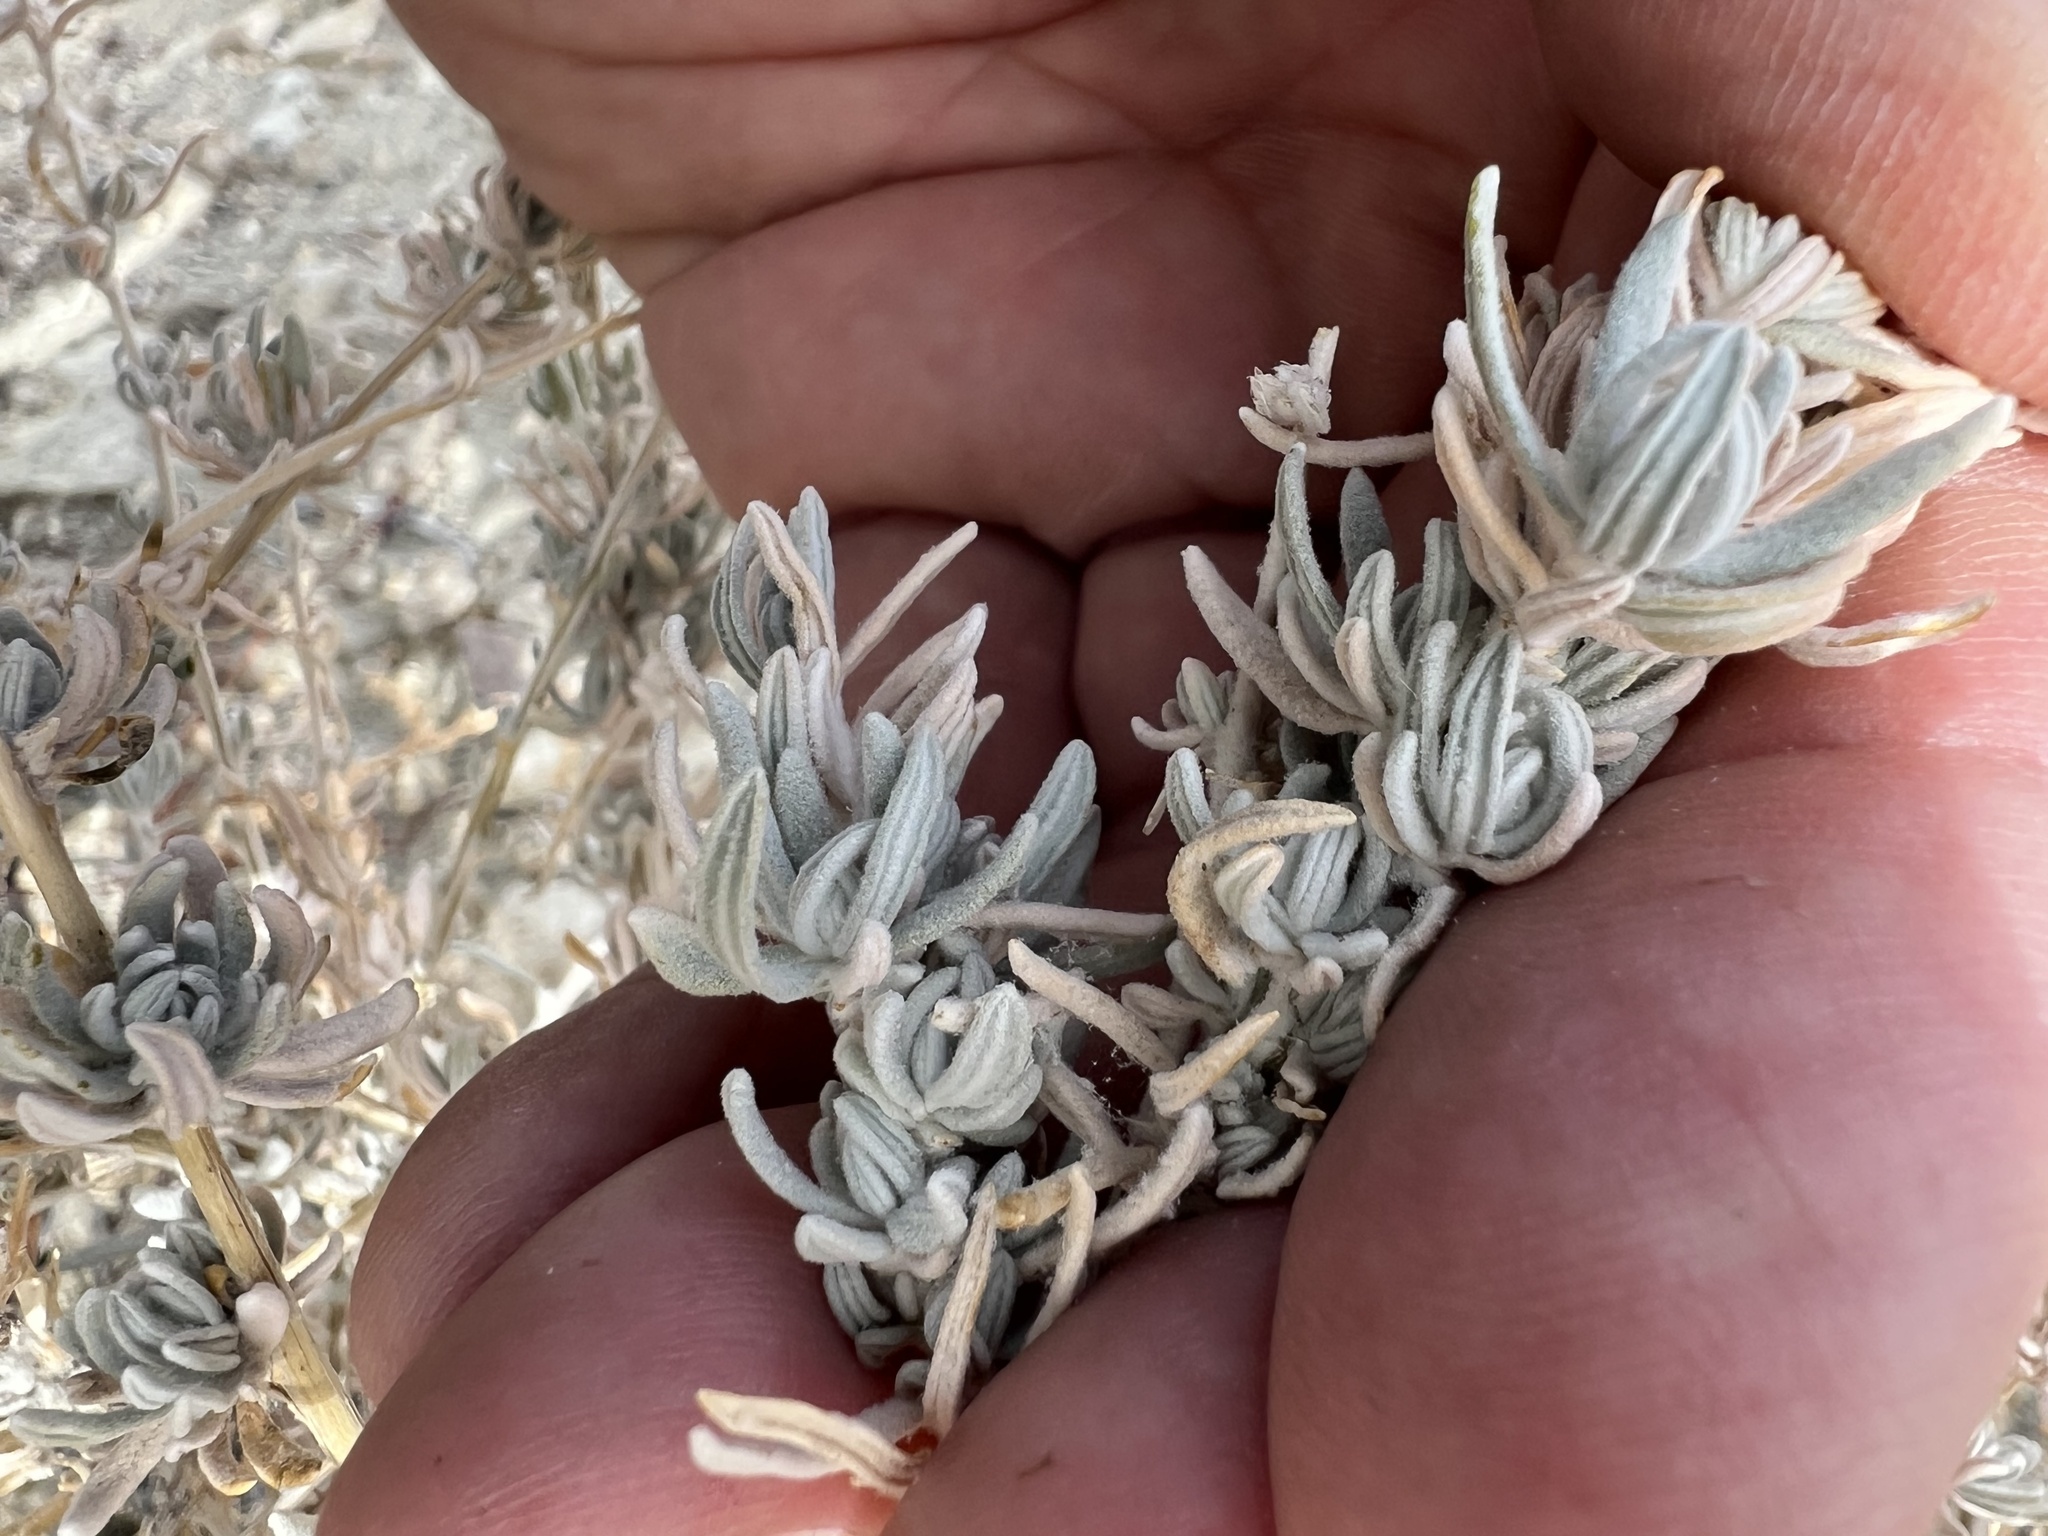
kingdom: Plantae
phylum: Tracheophyta
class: Magnoliopsida
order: Caryophyllales
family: Amaranthaceae
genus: Krascheninnikovia
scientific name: Krascheninnikovia lanata
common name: Winterfat
